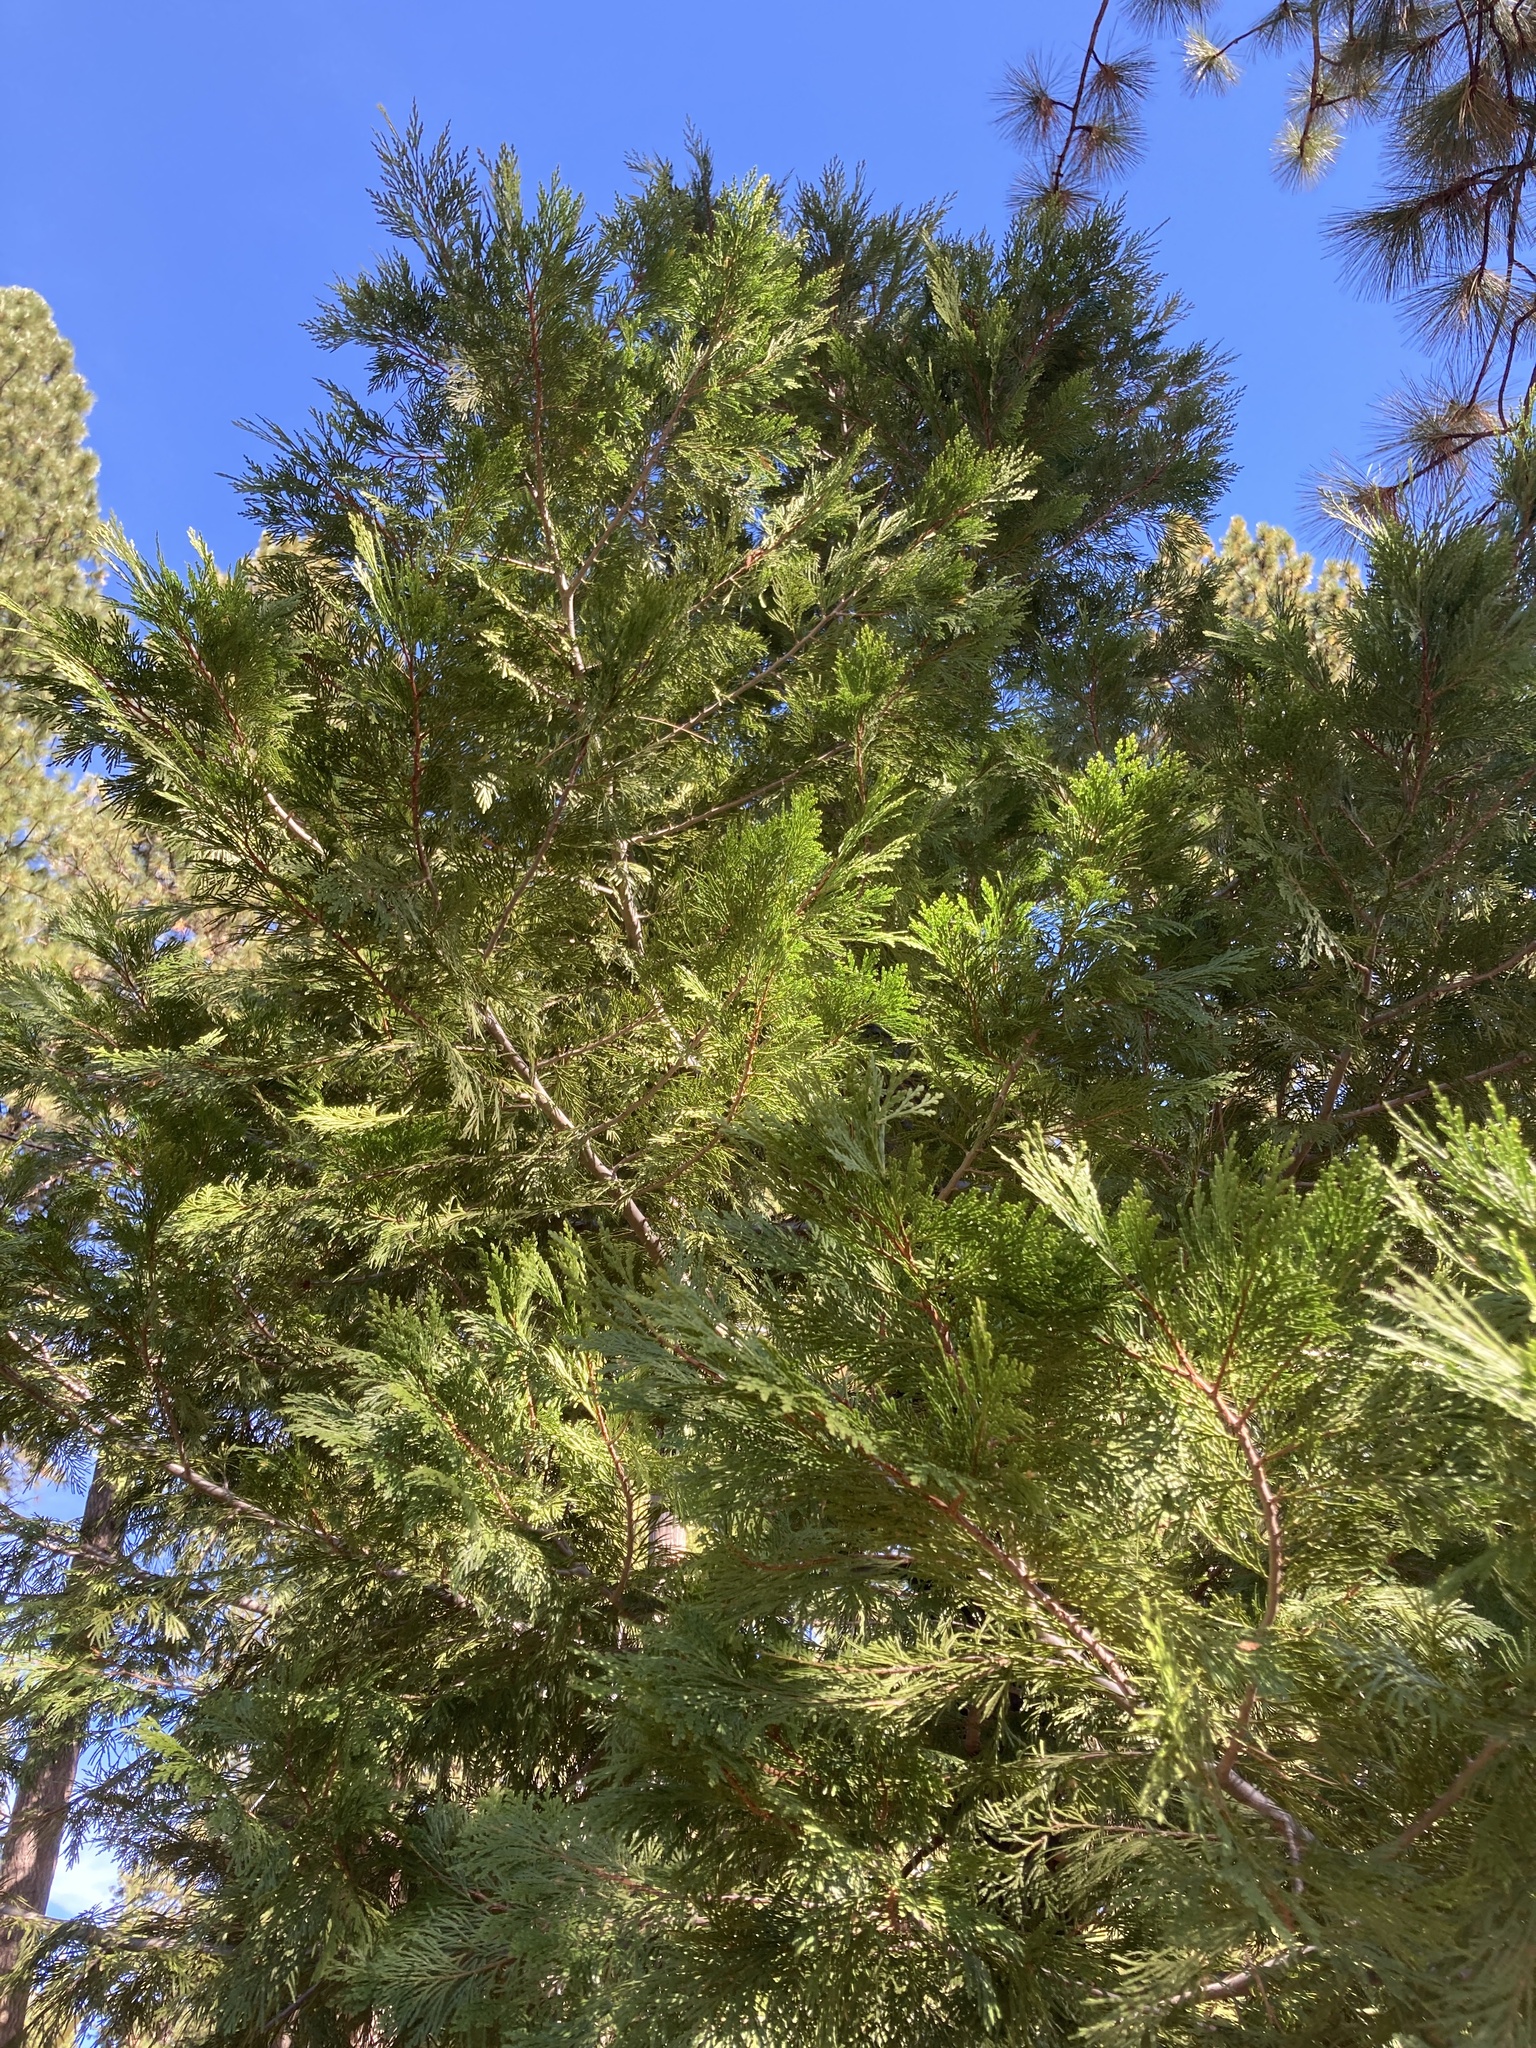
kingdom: Plantae
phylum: Tracheophyta
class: Pinopsida
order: Pinales
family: Cupressaceae
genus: Calocedrus
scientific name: Calocedrus decurrens
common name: Californian incense-cedar
